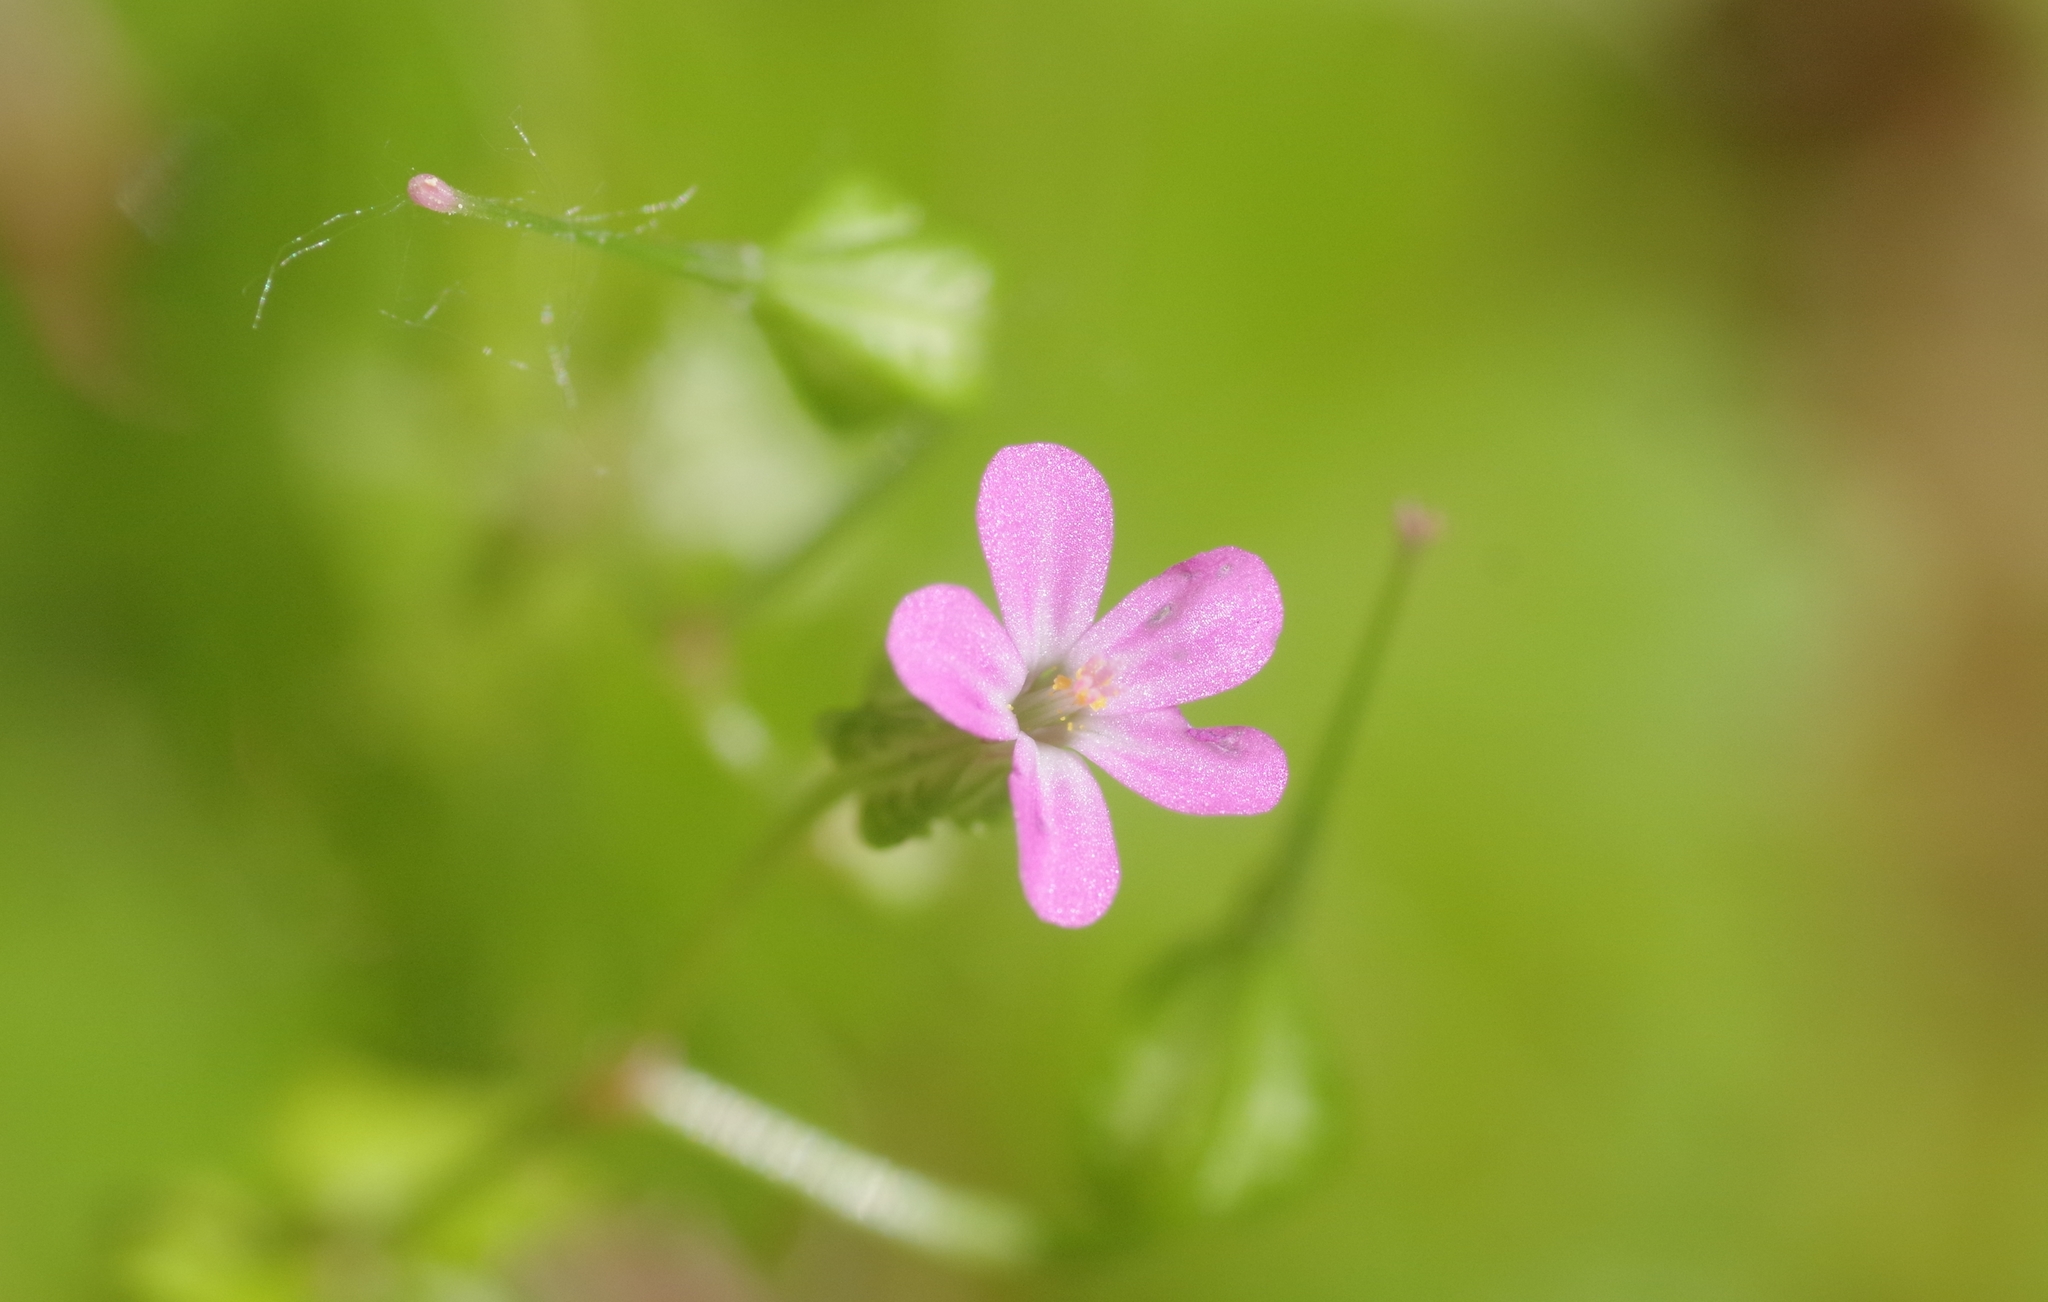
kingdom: Plantae
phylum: Tracheophyta
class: Magnoliopsida
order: Geraniales
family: Geraniaceae
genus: Geranium
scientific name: Geranium lucidum
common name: Shining crane's-bill
